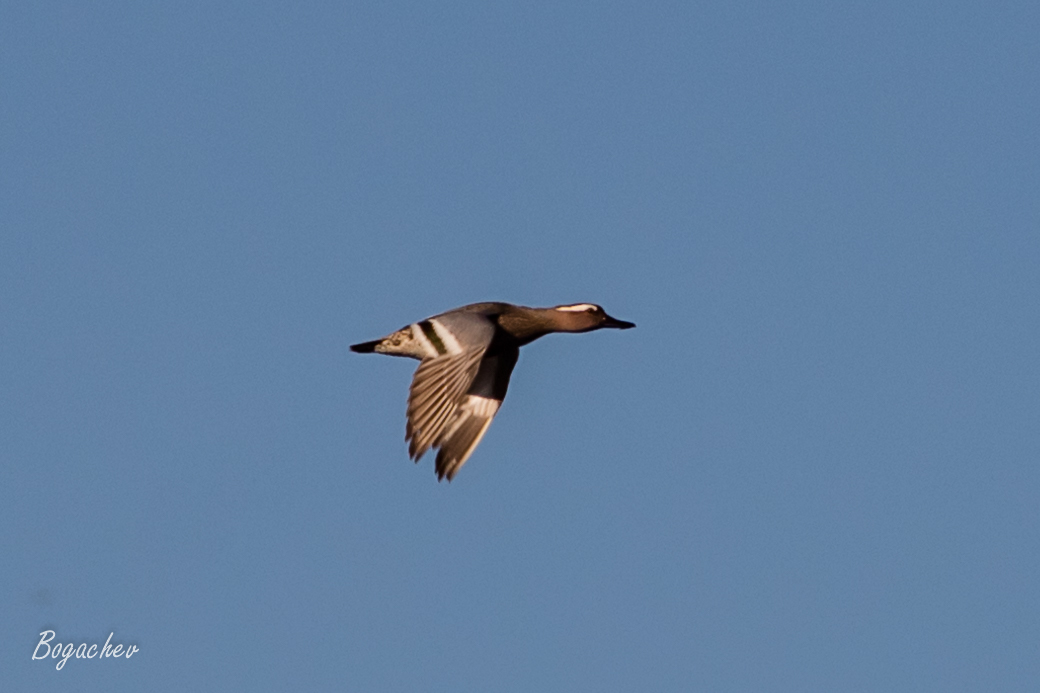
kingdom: Animalia
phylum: Chordata
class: Aves
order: Anseriformes
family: Anatidae
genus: Spatula
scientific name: Spatula querquedula
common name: Garganey
